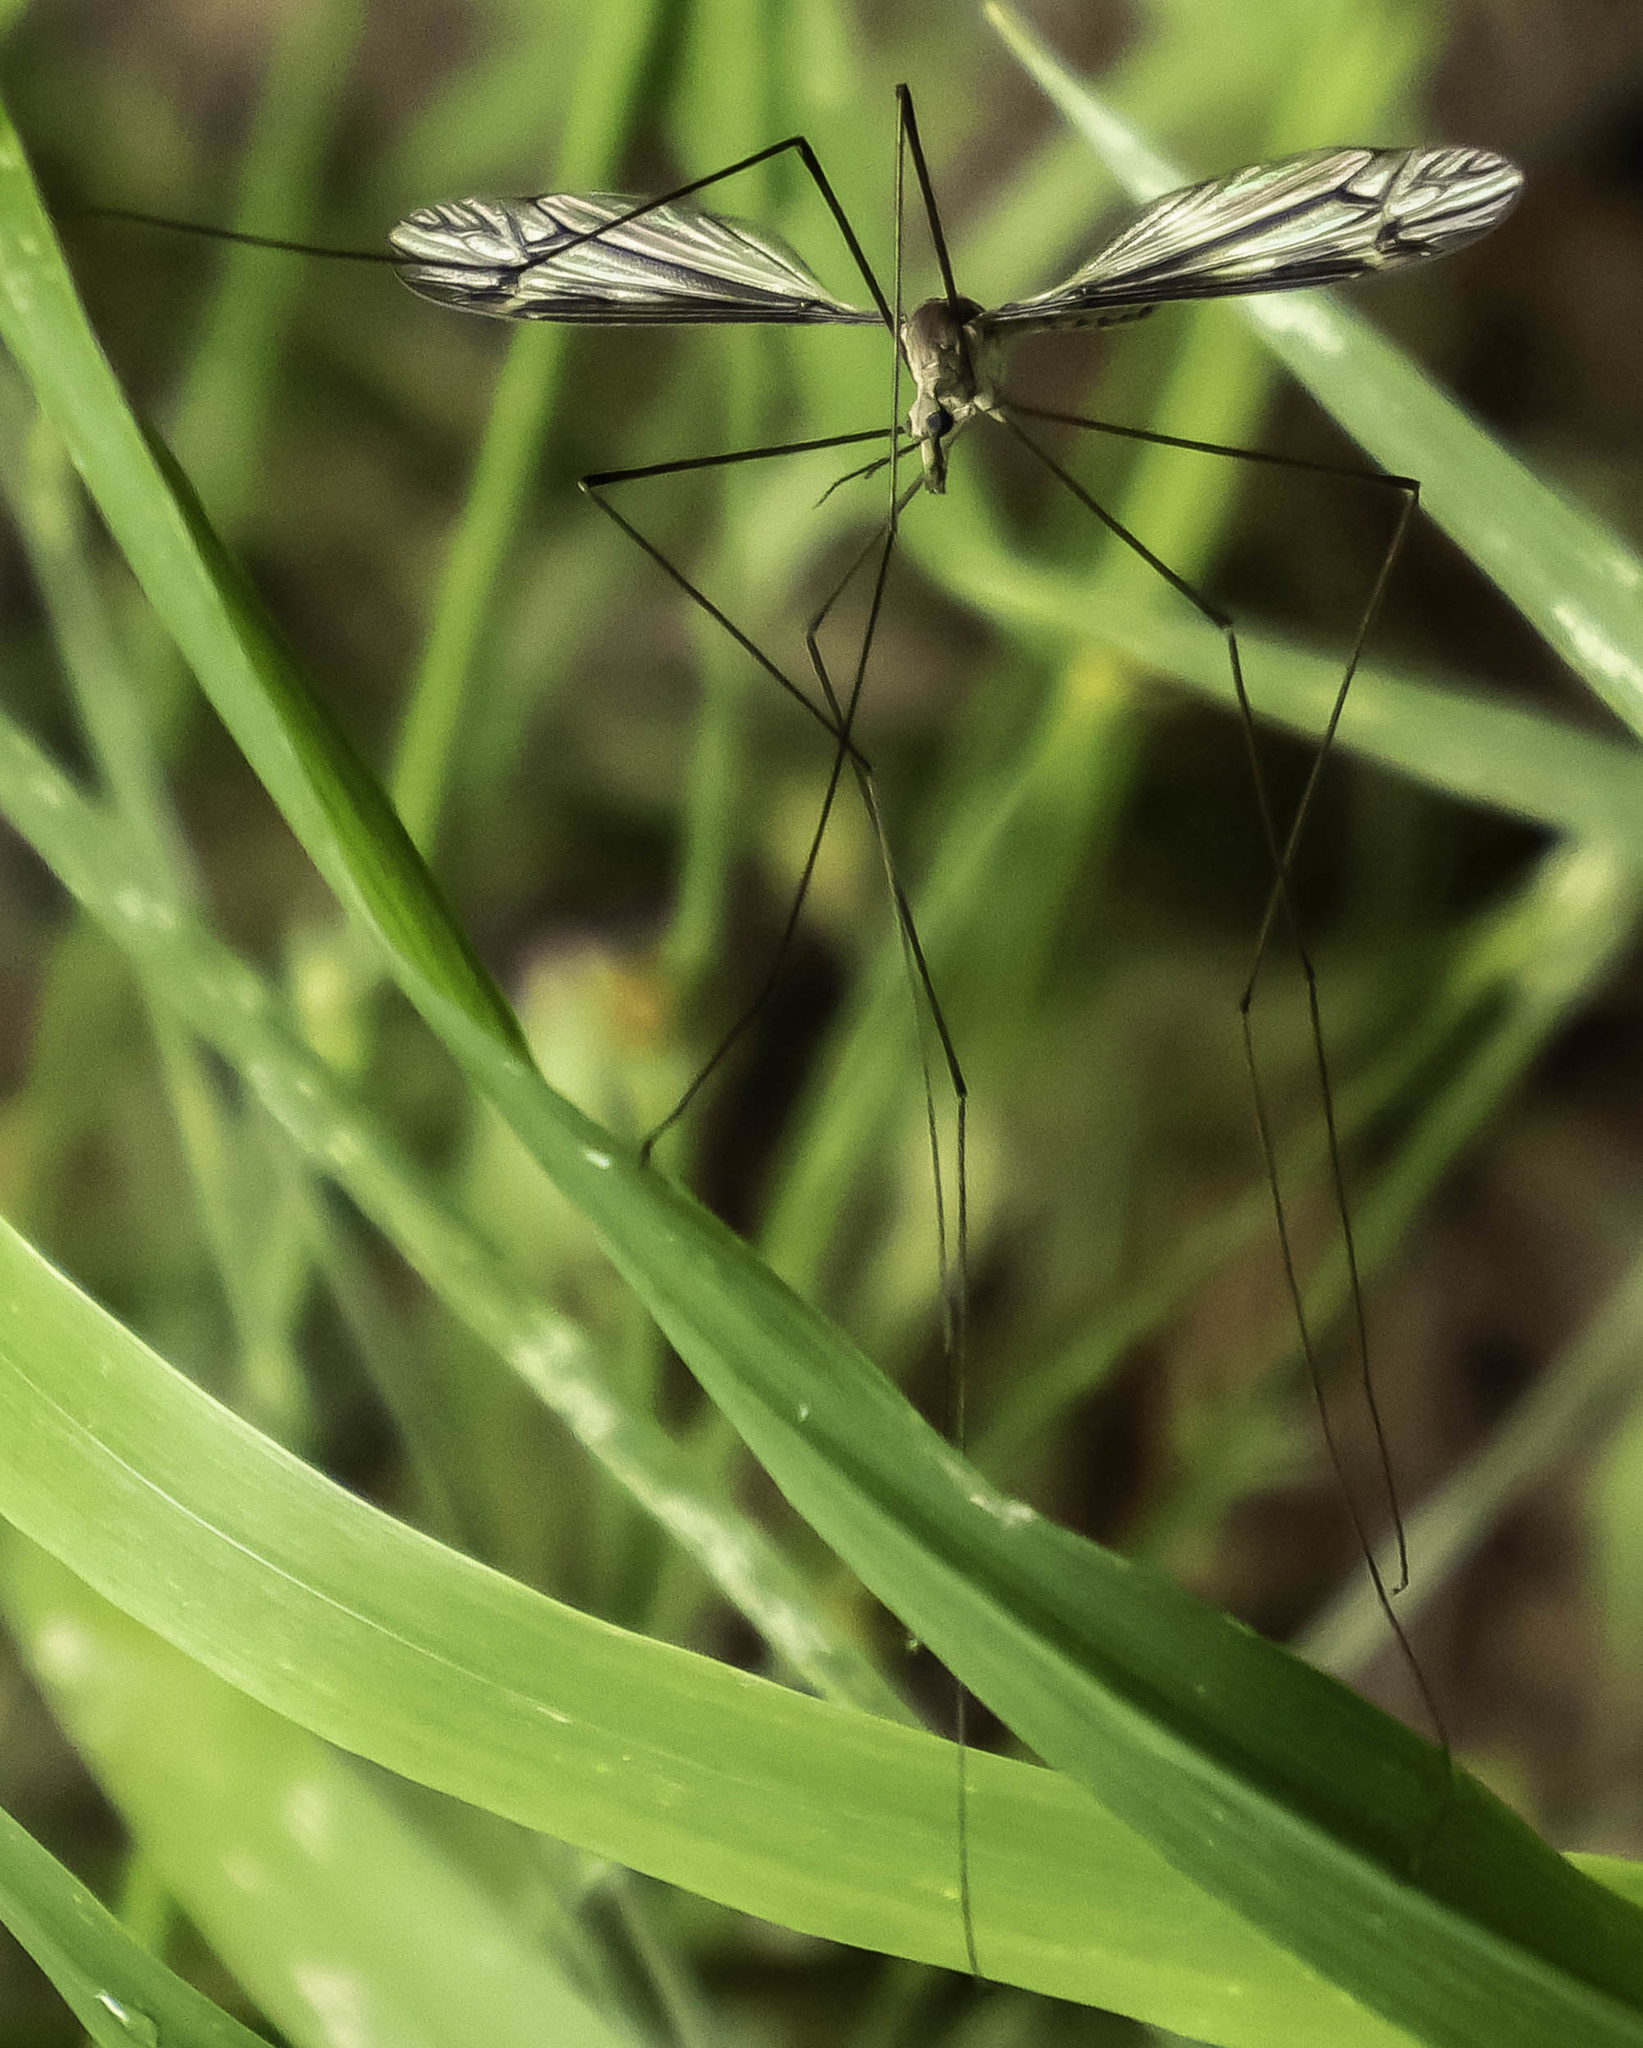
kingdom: Animalia
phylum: Arthropoda
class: Insecta
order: Diptera
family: Tipulidae
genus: Tipula
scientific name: Tipula furca
